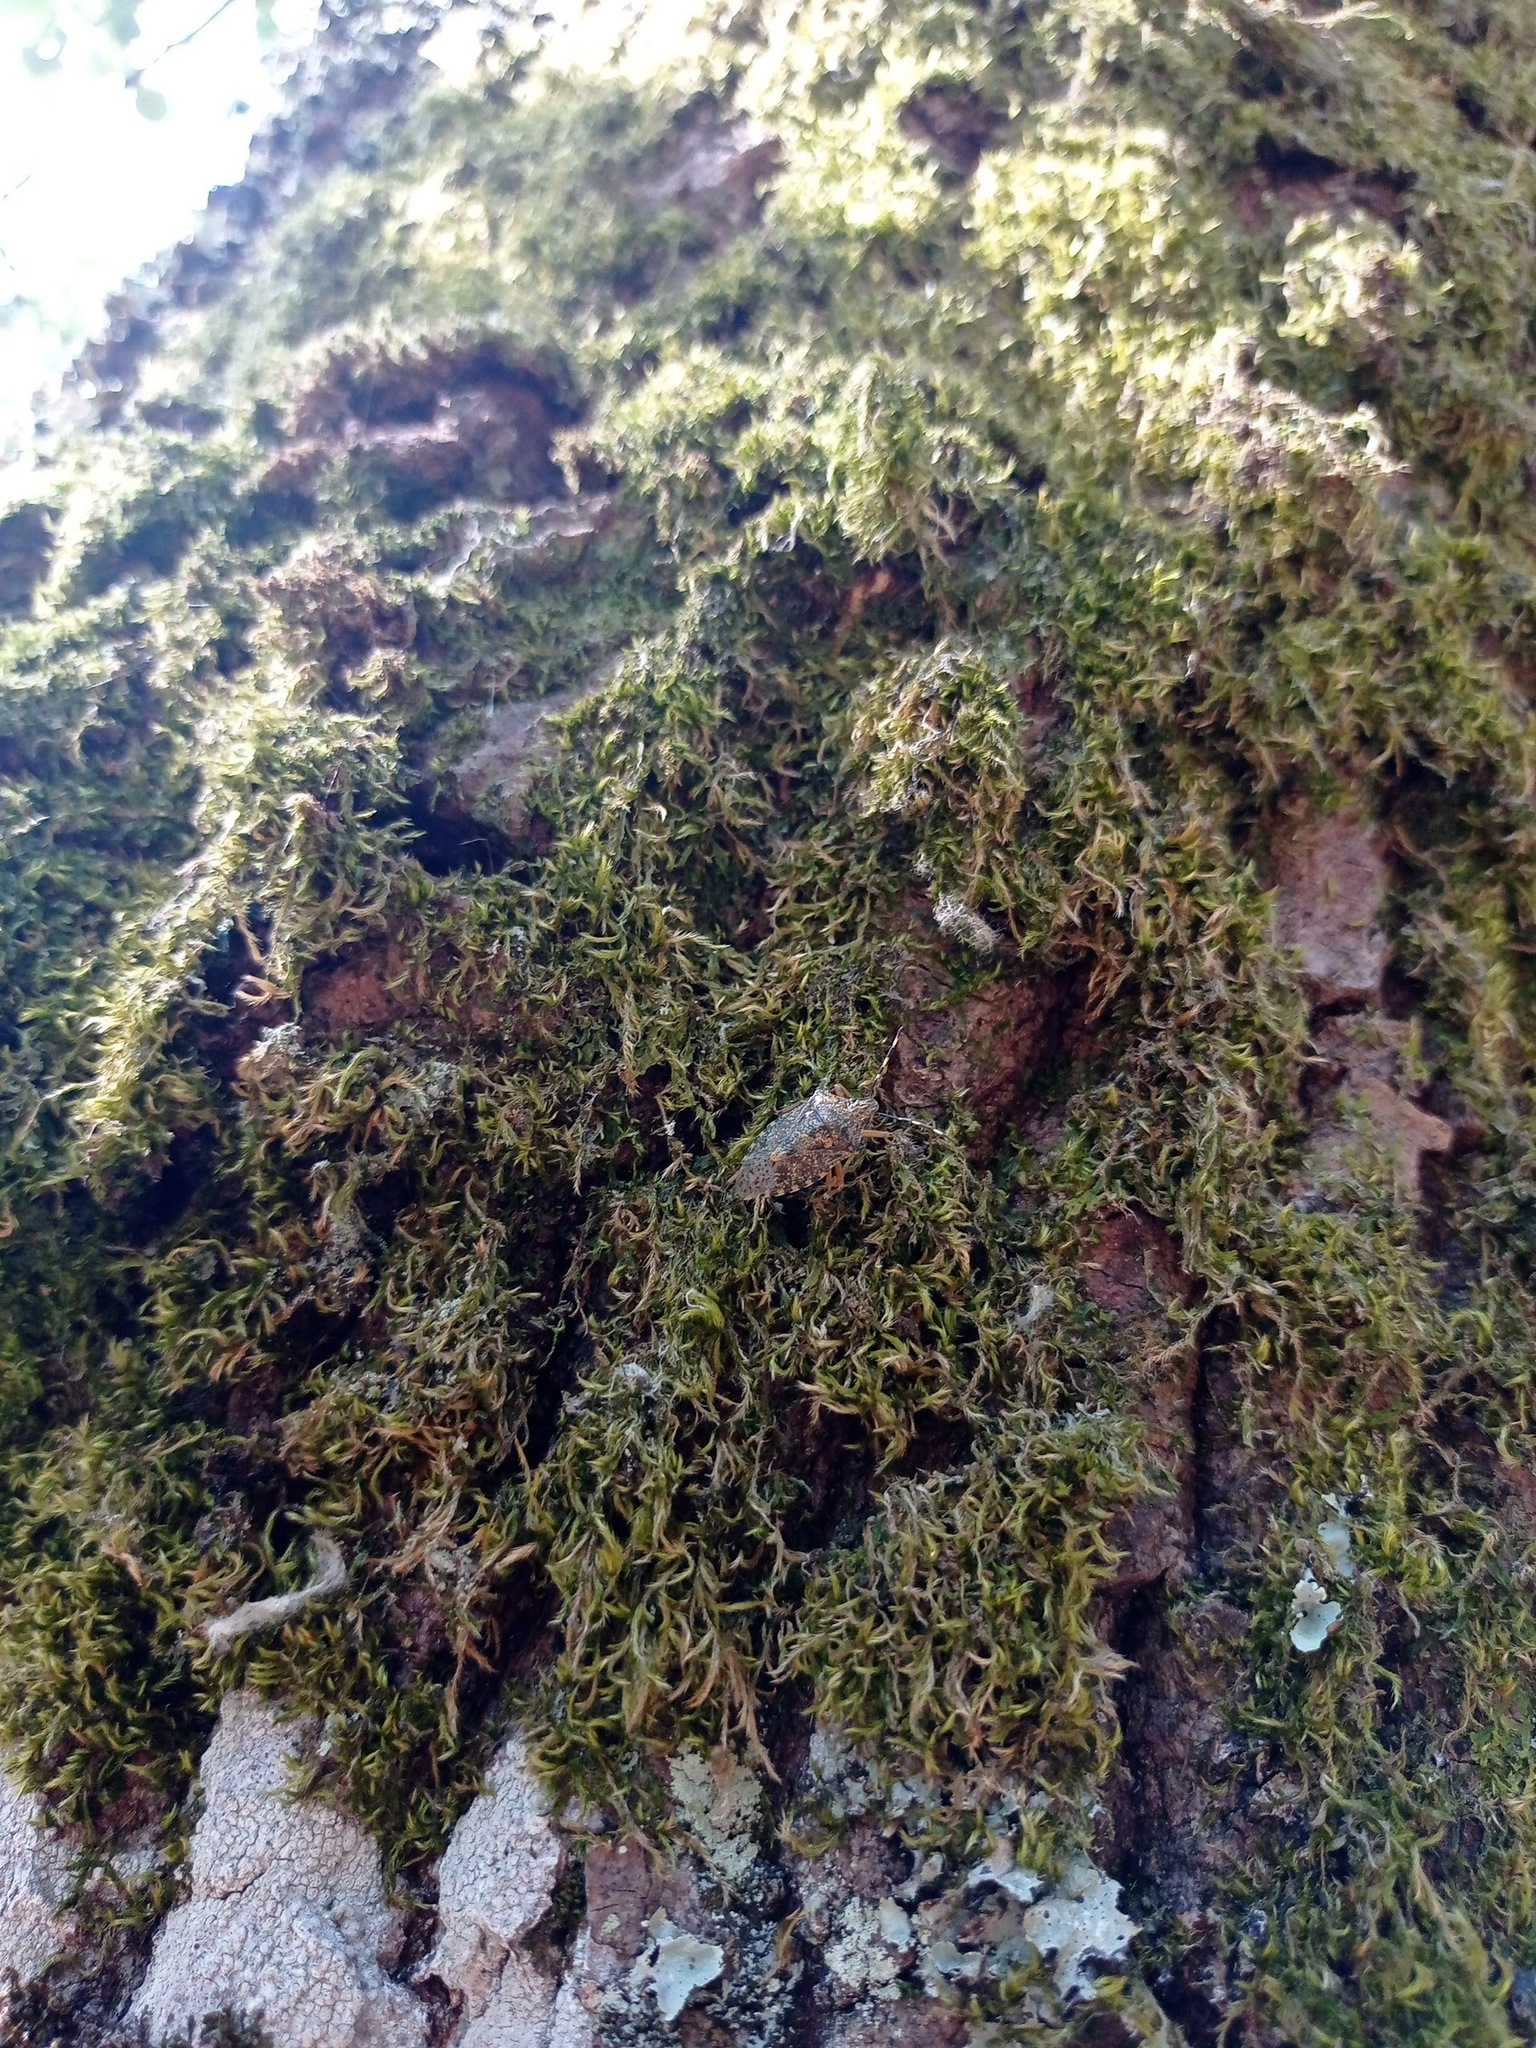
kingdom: Animalia
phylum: Arthropoda
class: Insecta
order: Hemiptera
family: Pentatomidae
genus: Rhaphigaster
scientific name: Rhaphigaster nebulosa
